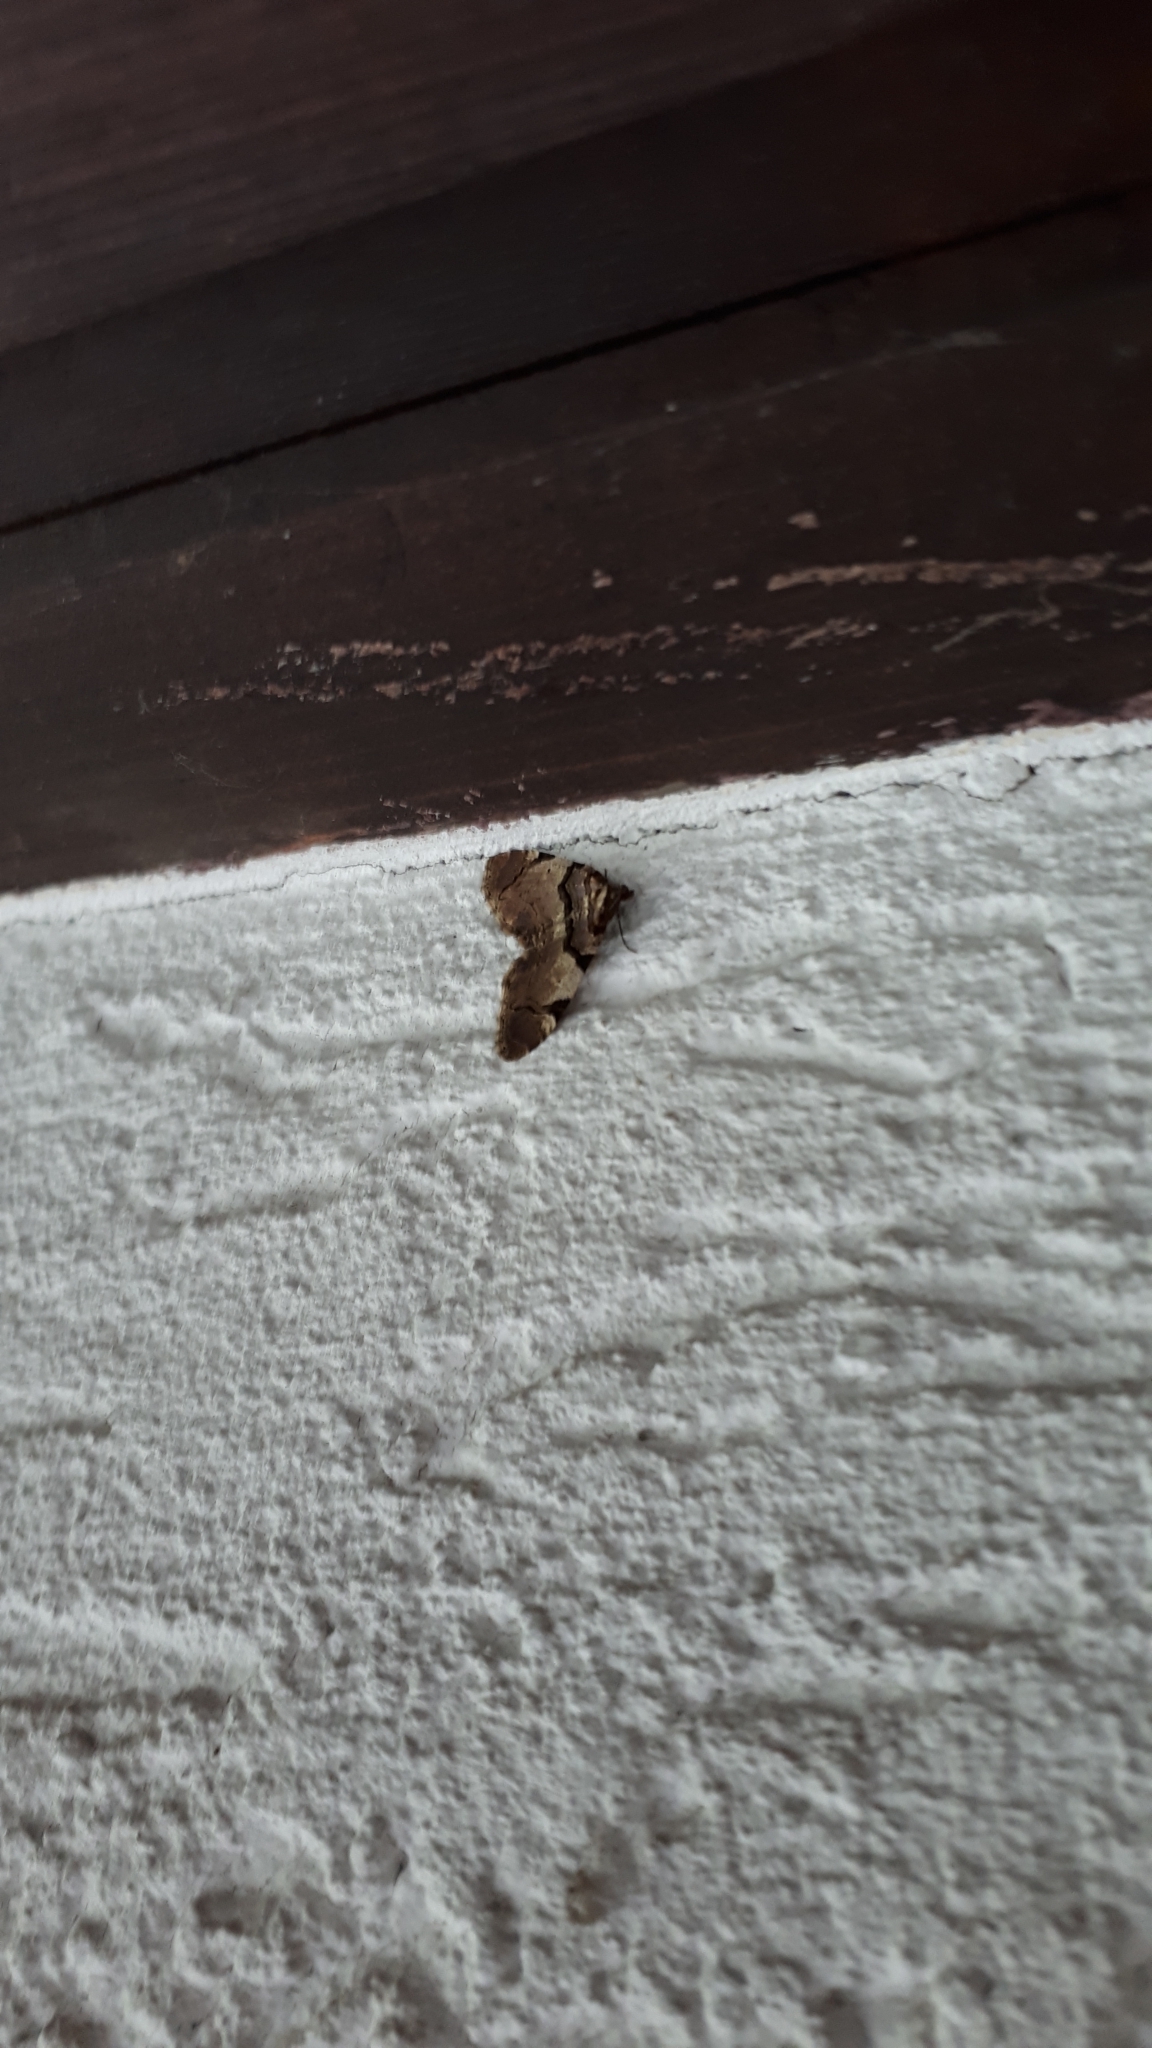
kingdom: Animalia
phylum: Arthropoda
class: Insecta
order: Lepidoptera
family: Geometridae
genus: Anticlea
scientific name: Anticlea derivata
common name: Streamer
